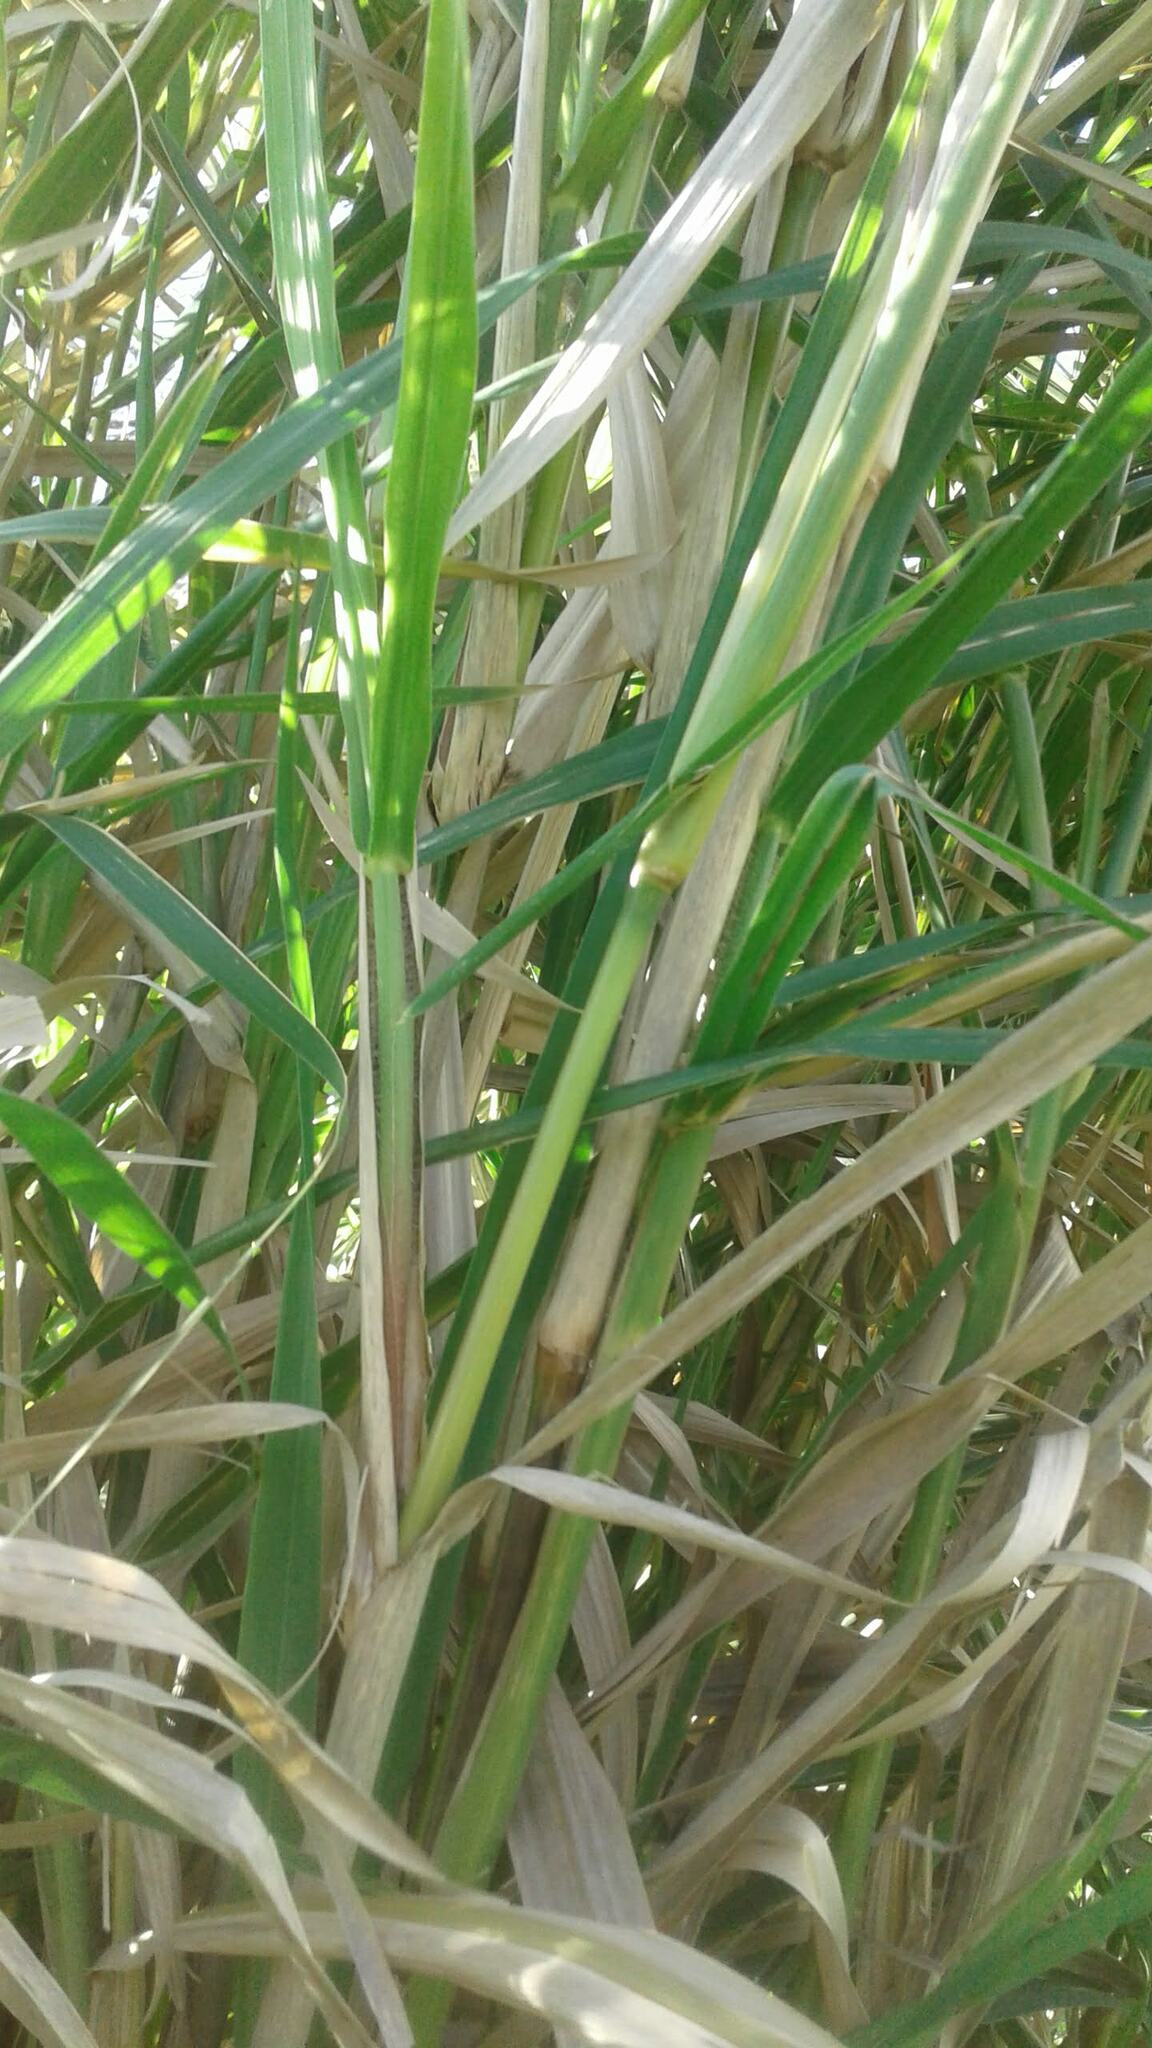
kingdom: Plantae
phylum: Tracheophyta
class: Liliopsida
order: Poales
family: Poaceae
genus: Echinochloa
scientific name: Echinochloa pyramidalis
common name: Antelope grass
